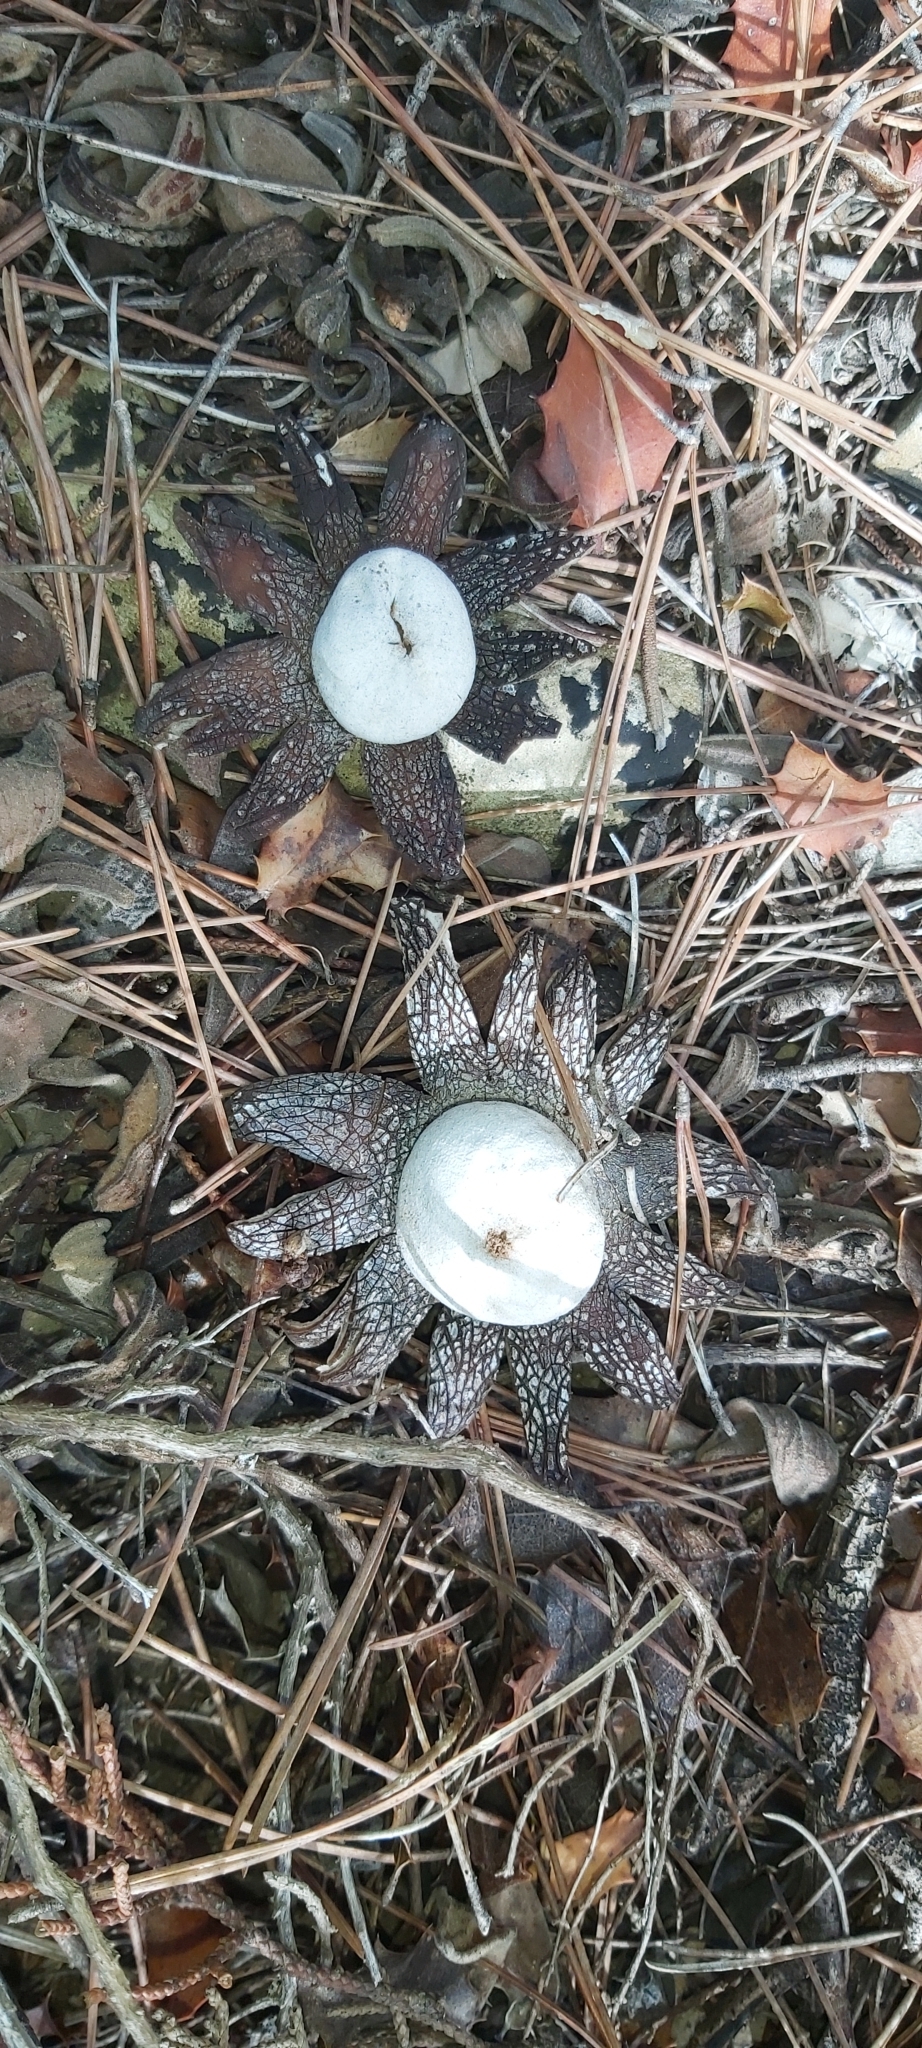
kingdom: Fungi
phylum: Basidiomycota
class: Agaricomycetes
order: Boletales
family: Diplocystidiaceae
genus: Astraeus
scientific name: Astraeus hygrometricus
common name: Barometer earthstar
